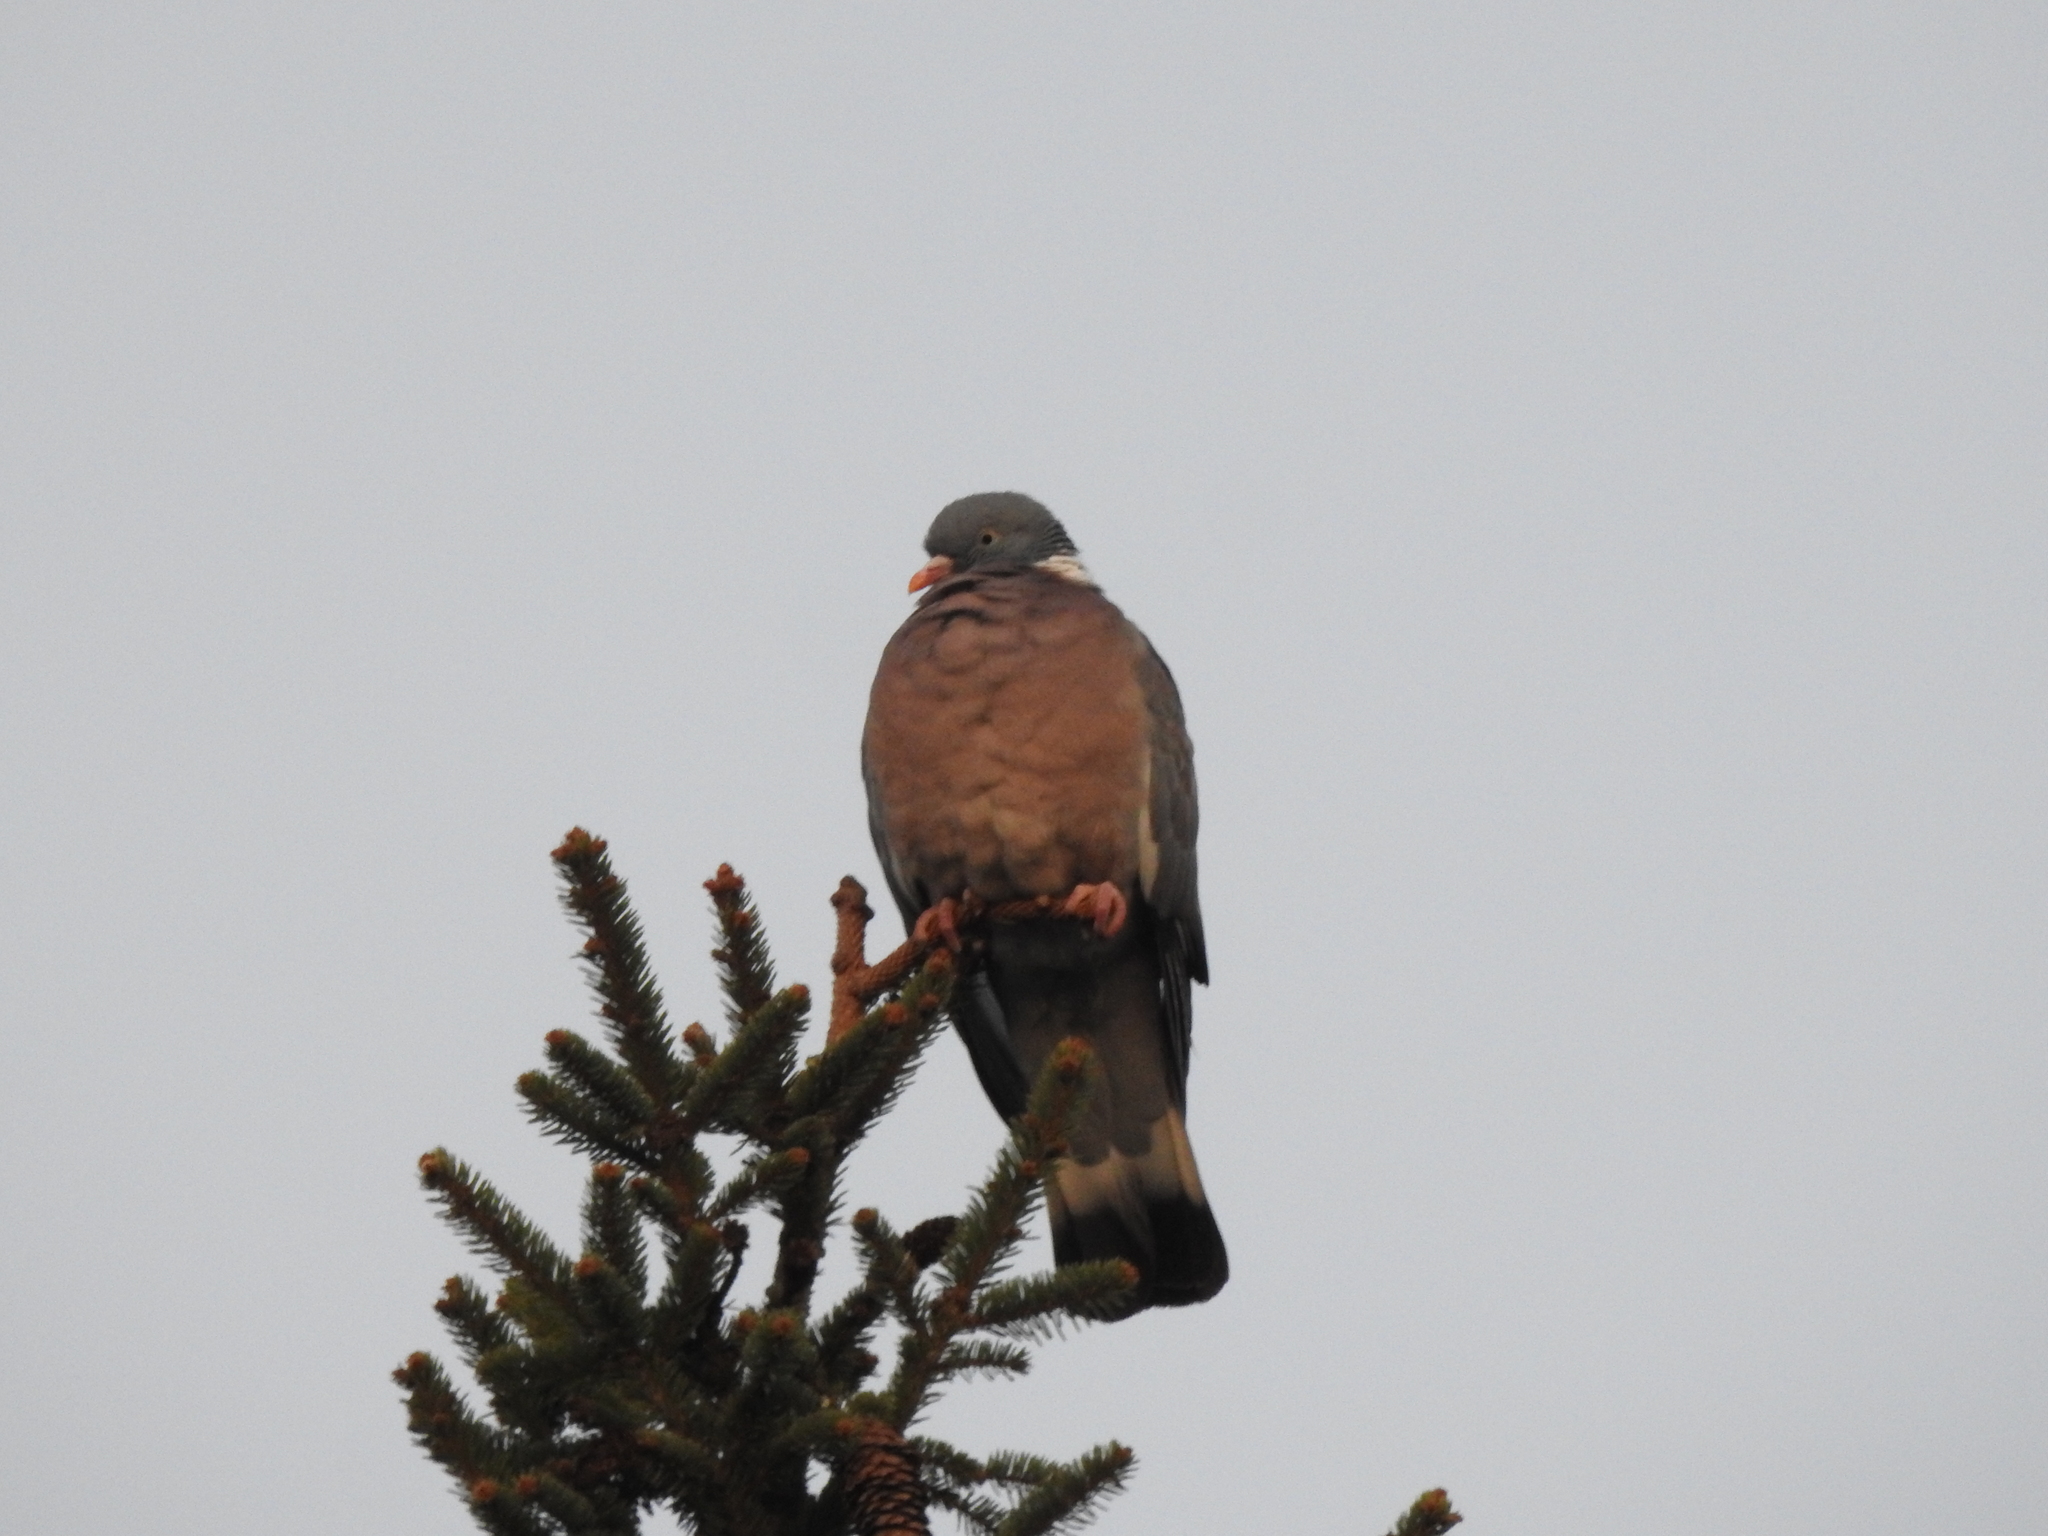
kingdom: Animalia
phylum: Chordata
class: Aves
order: Columbiformes
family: Columbidae
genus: Columba
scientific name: Columba palumbus
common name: Common wood pigeon
